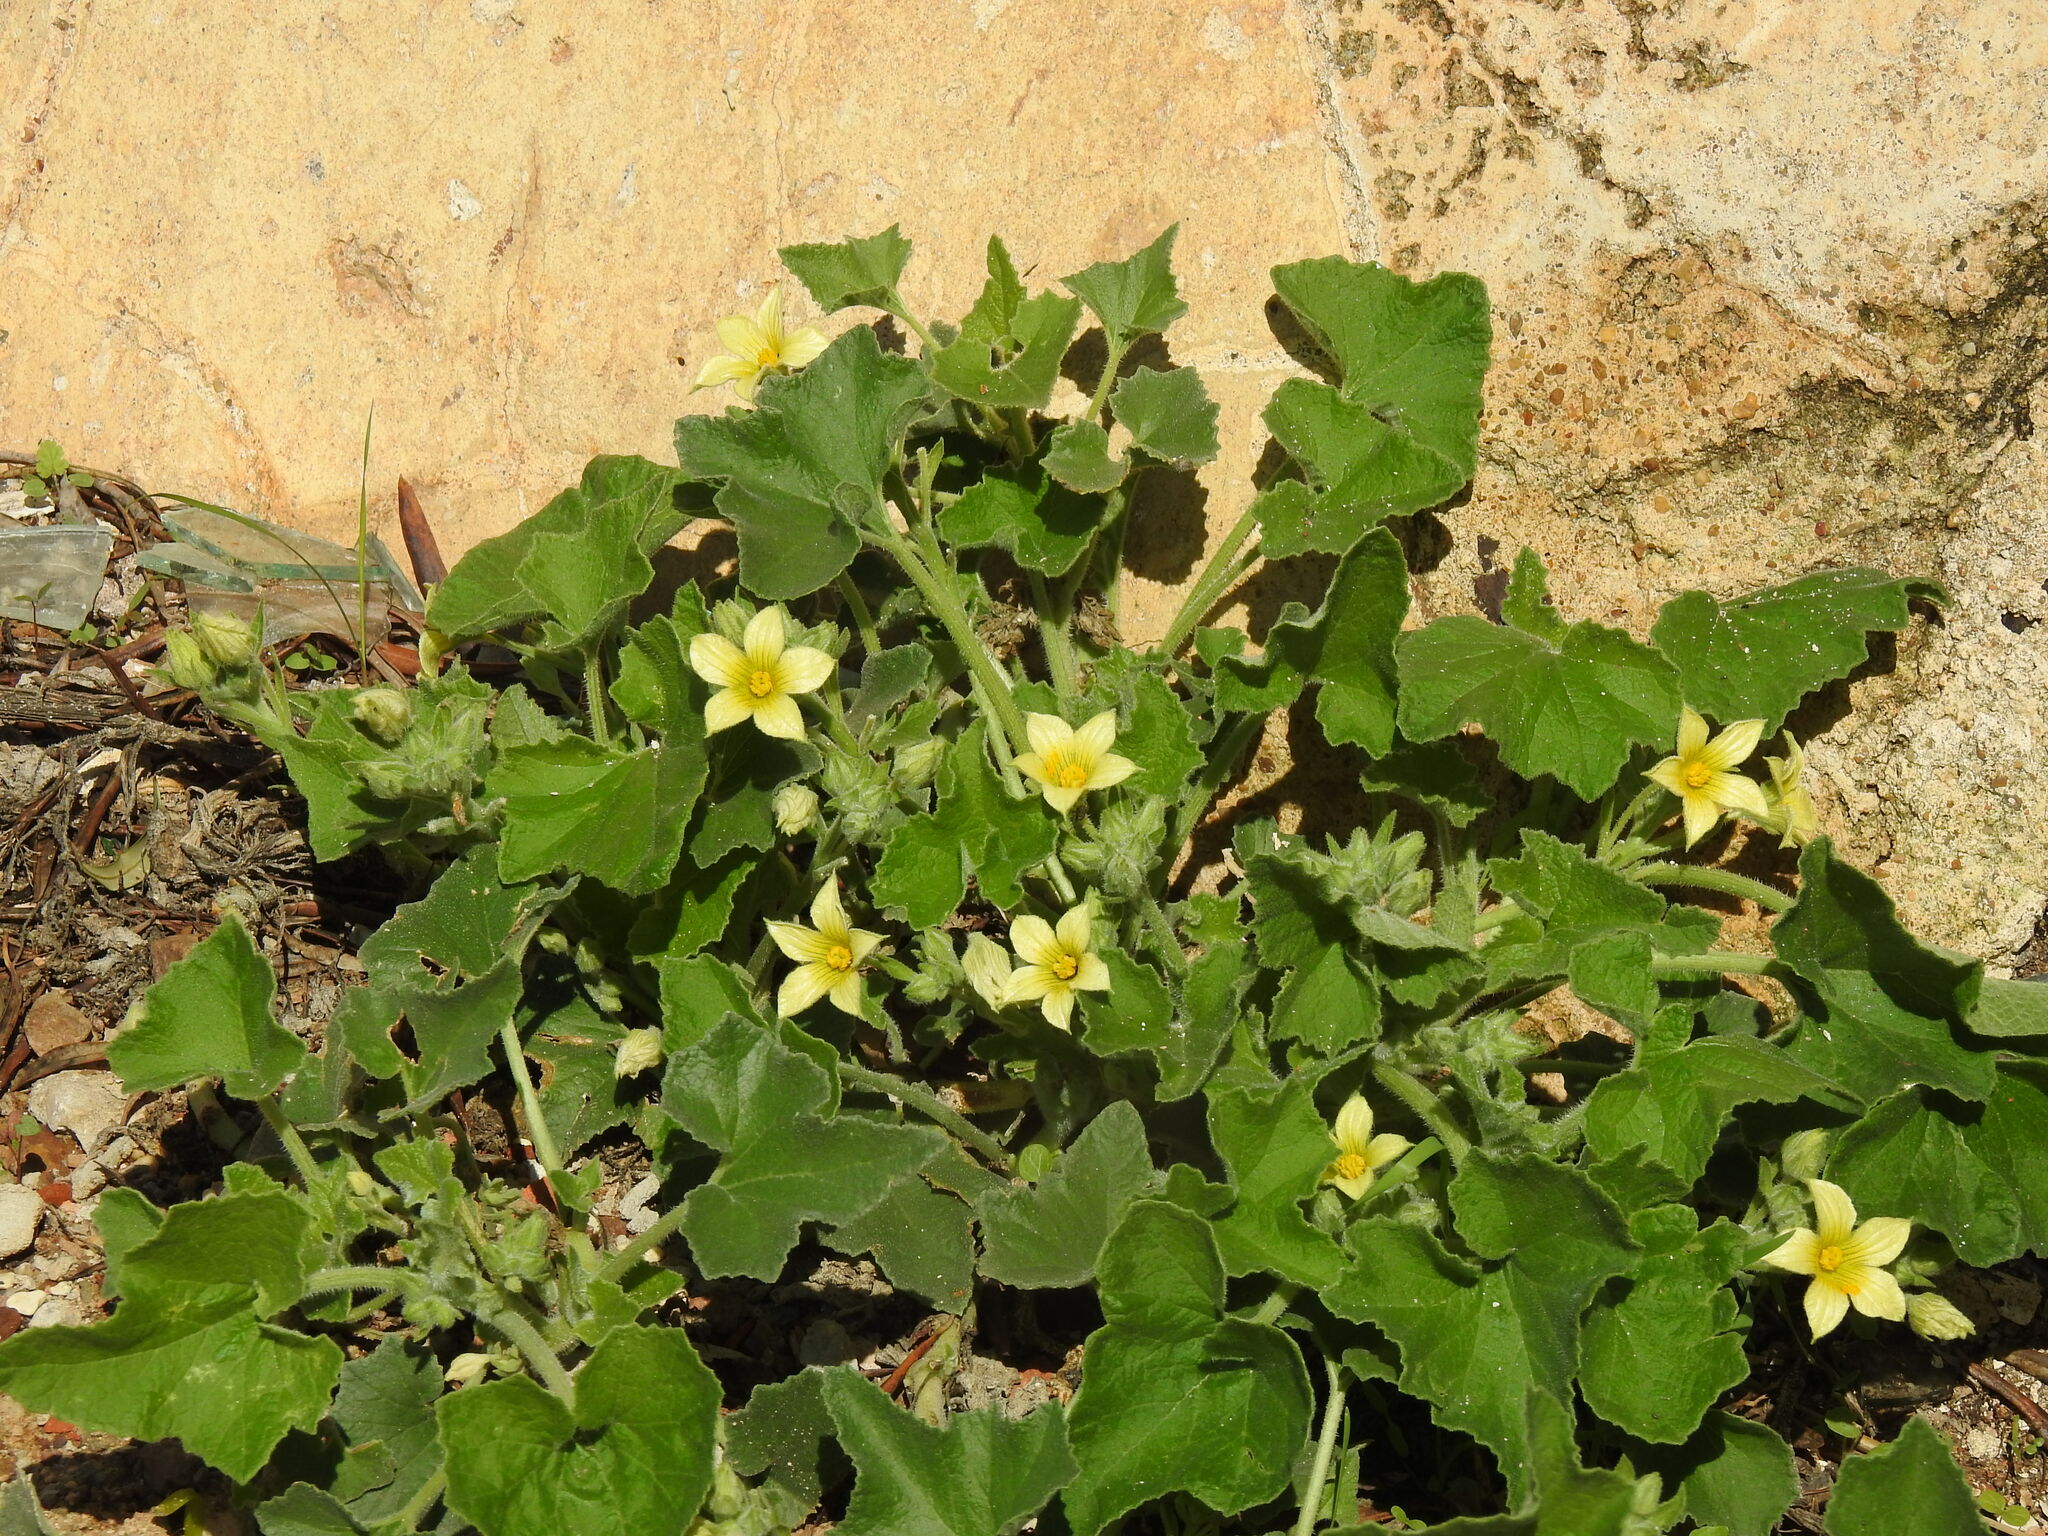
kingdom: Plantae
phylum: Tracheophyta
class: Magnoliopsida
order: Cucurbitales
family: Cucurbitaceae
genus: Ecballium
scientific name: Ecballium elaterium
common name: Squirting cucumber
